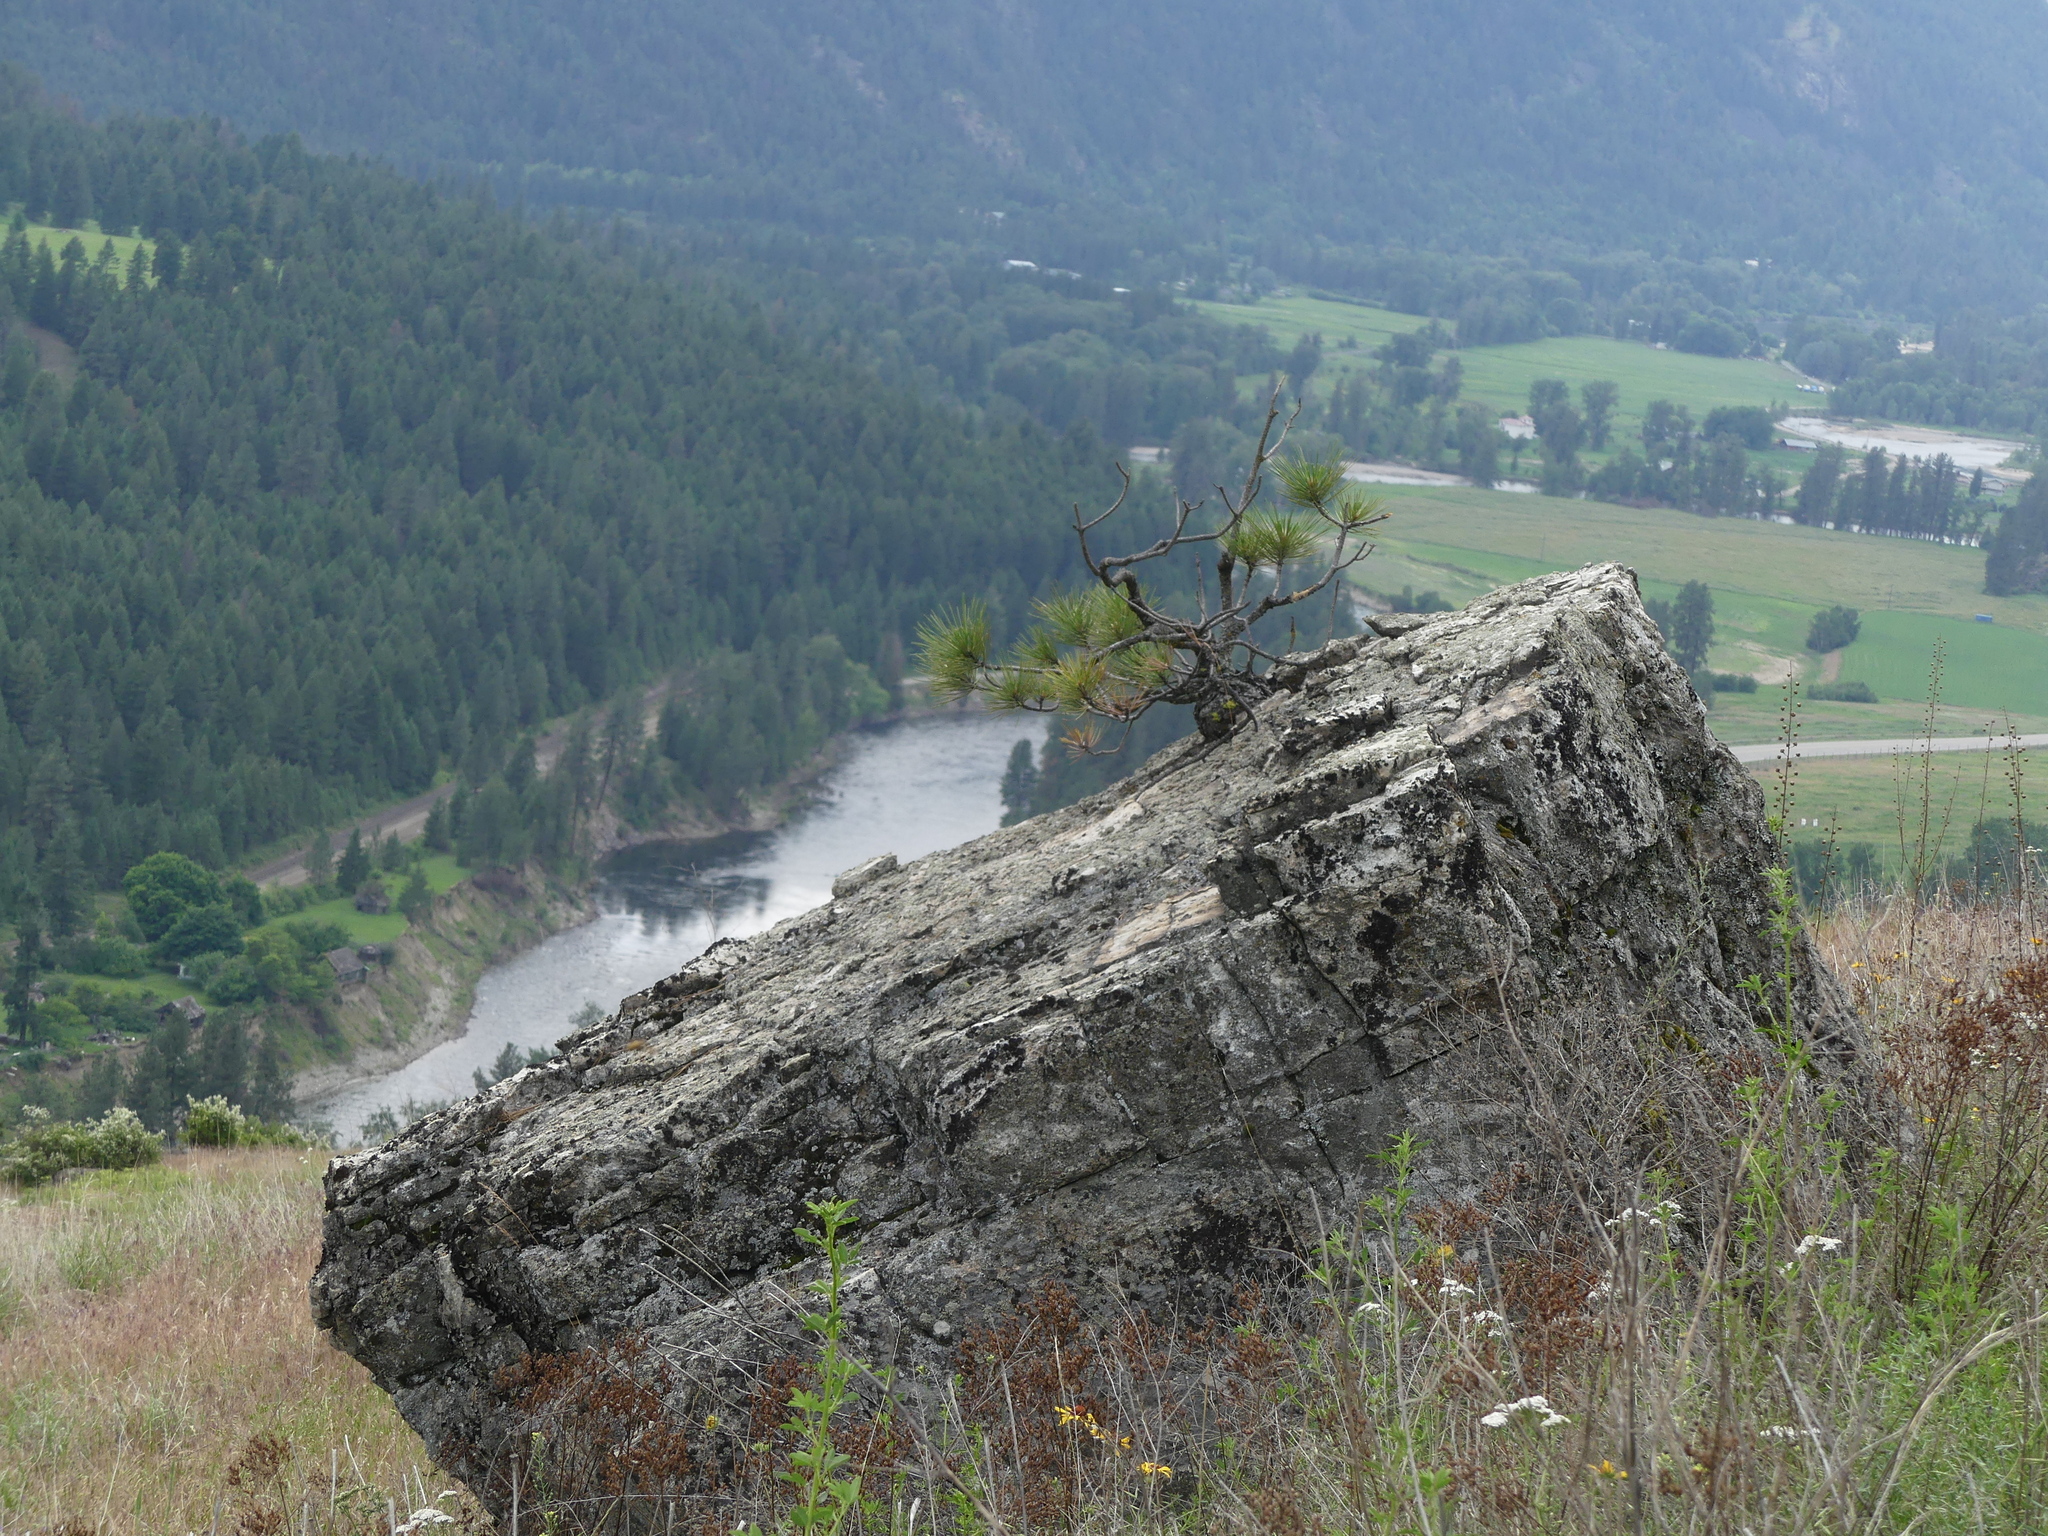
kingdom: Plantae
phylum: Tracheophyta
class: Pinopsida
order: Pinales
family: Pinaceae
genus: Pinus
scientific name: Pinus ponderosa
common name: Western yellow-pine
